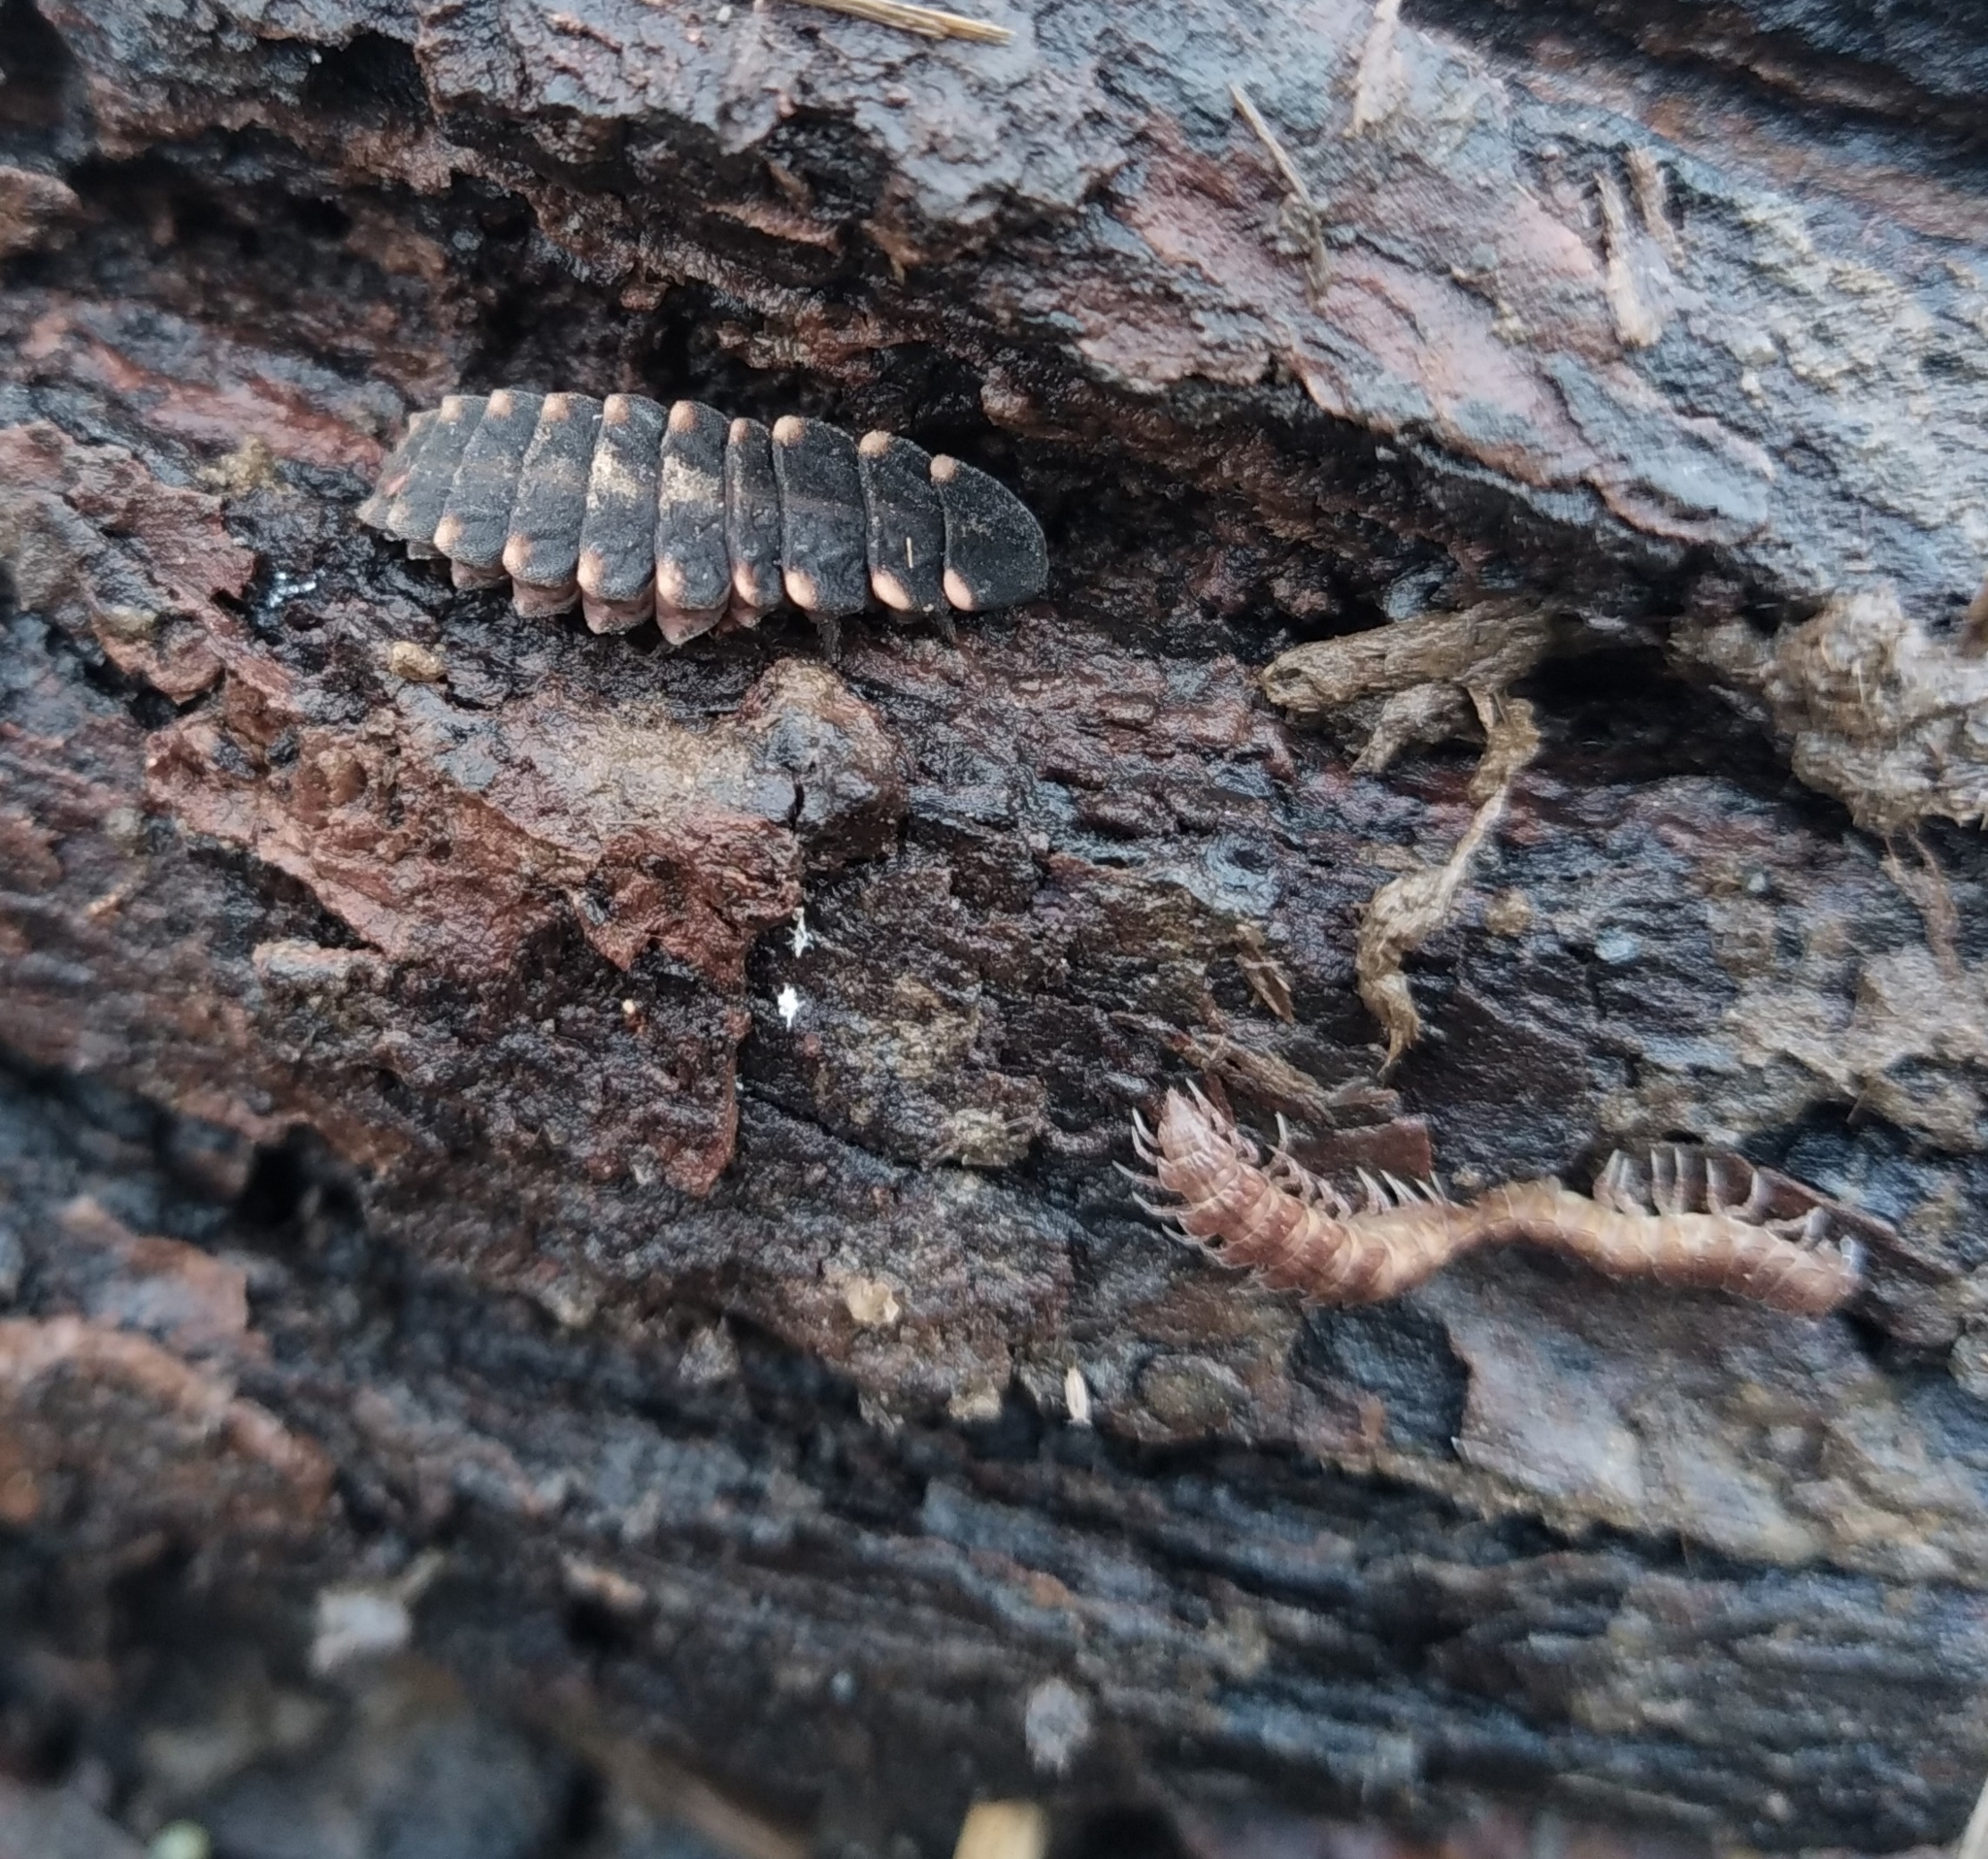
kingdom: Animalia
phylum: Arthropoda
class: Insecta
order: Coleoptera
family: Lampyridae
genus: Lampyris
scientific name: Lampyris noctiluca
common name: Glow-worm
